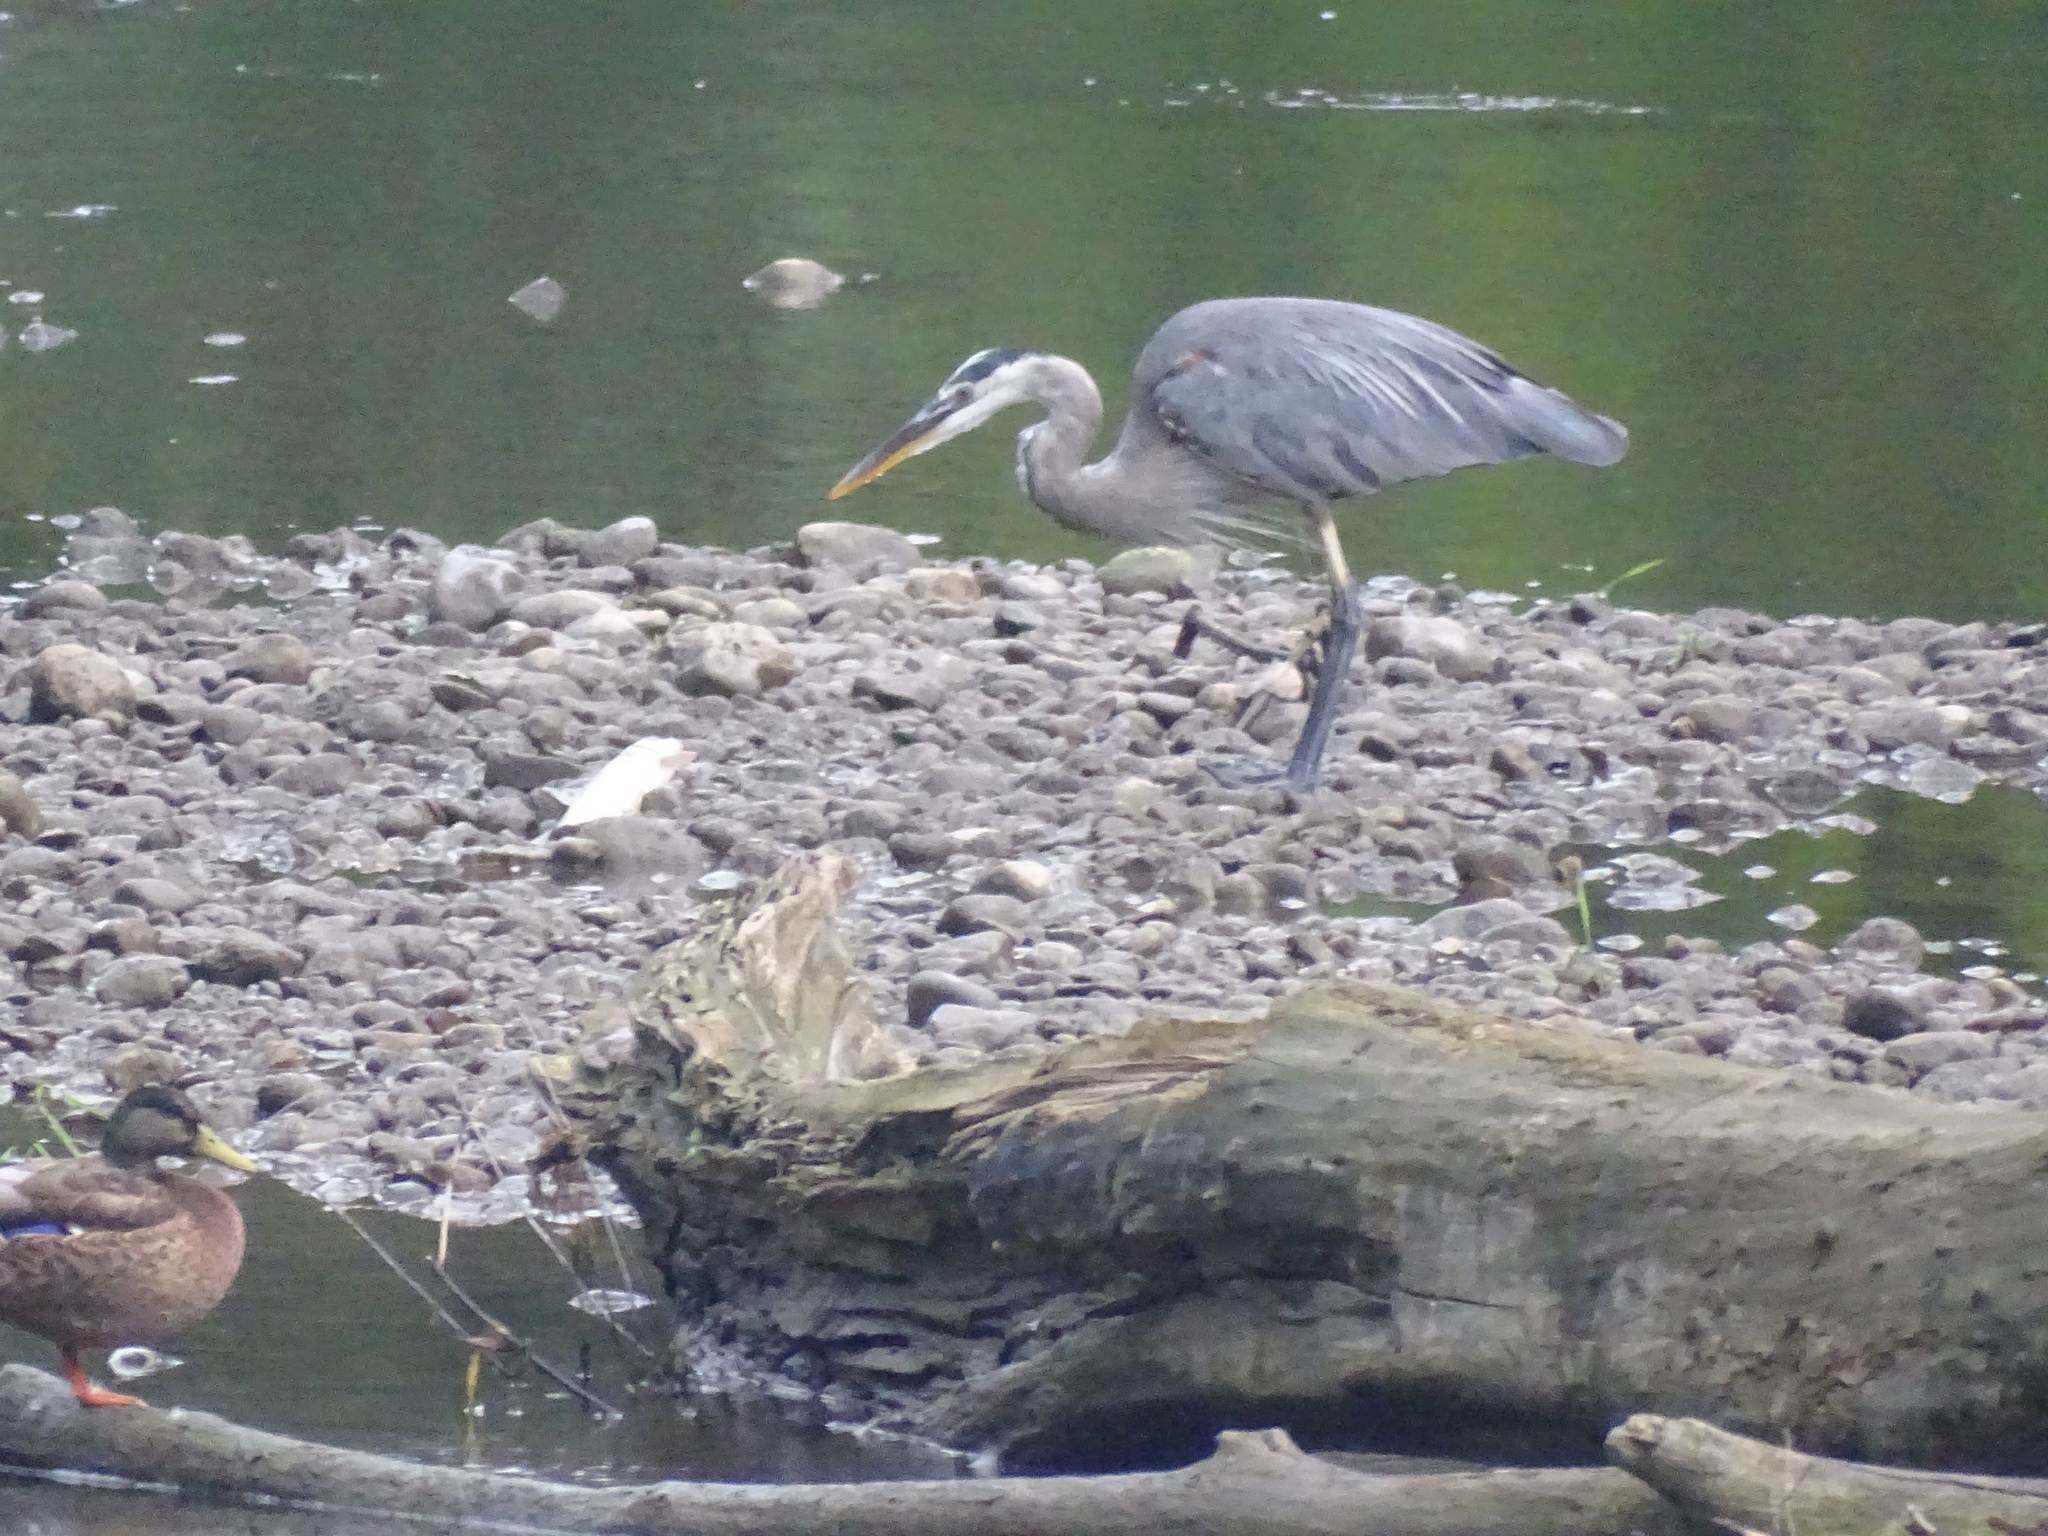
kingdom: Animalia
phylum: Chordata
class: Aves
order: Pelecaniformes
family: Ardeidae
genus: Ardea
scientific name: Ardea herodias
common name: Great blue heron
